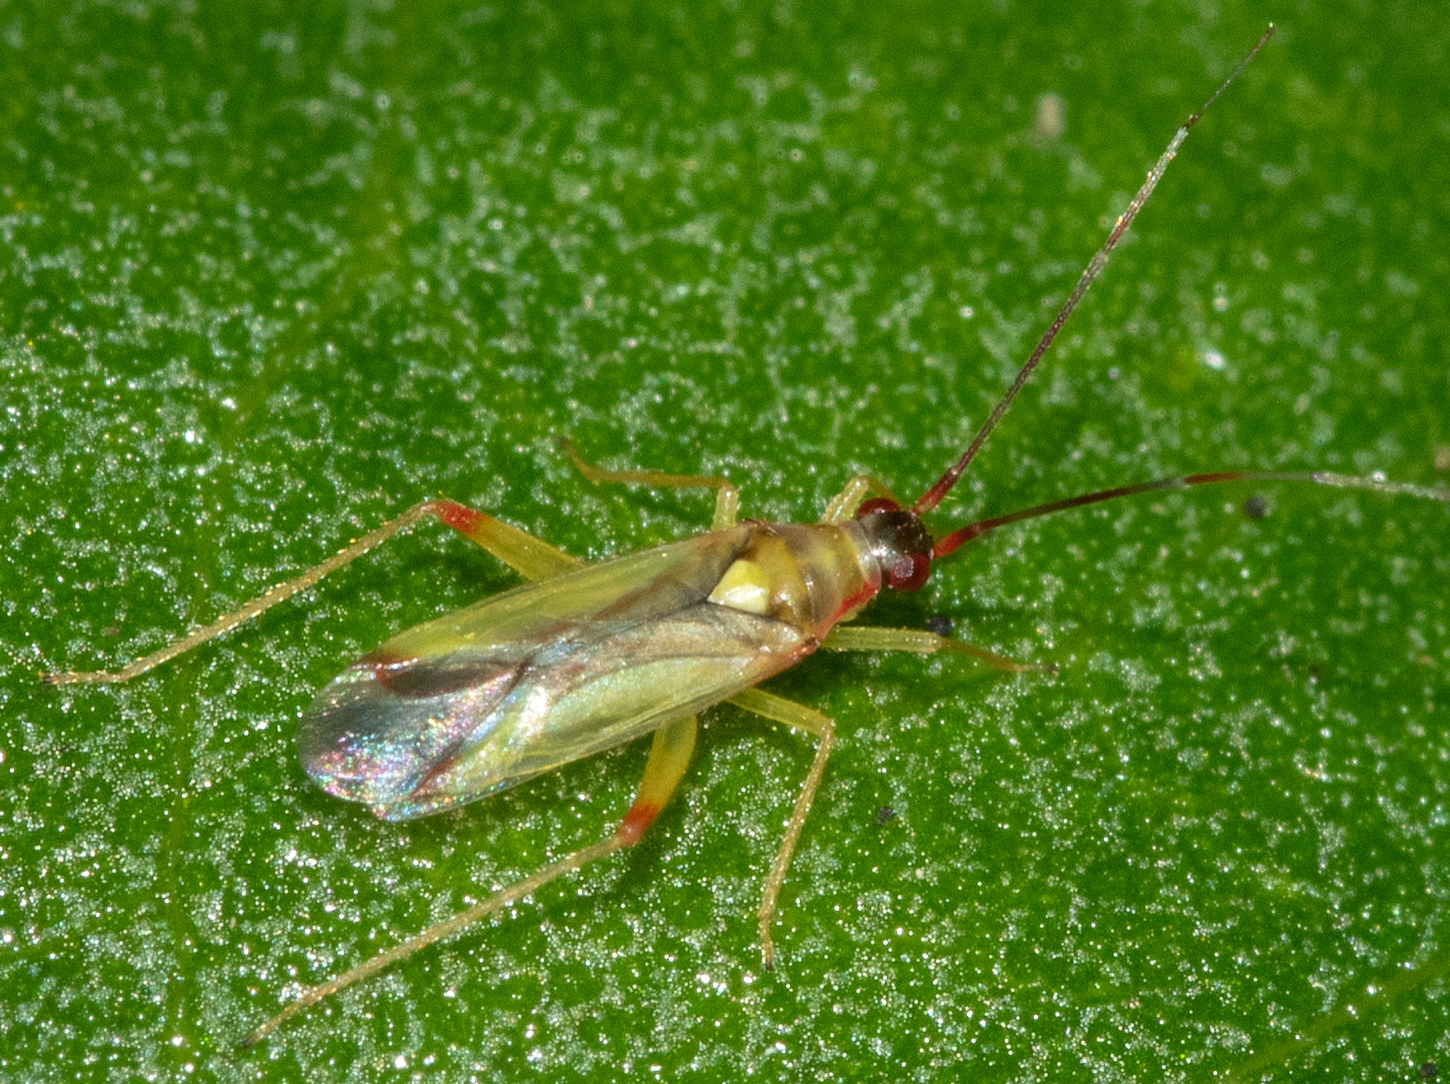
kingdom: Animalia
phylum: Arthropoda
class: Insecta
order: Hemiptera
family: Miridae
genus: Campyloneura
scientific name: Campyloneura virgula
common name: Predatory bug
